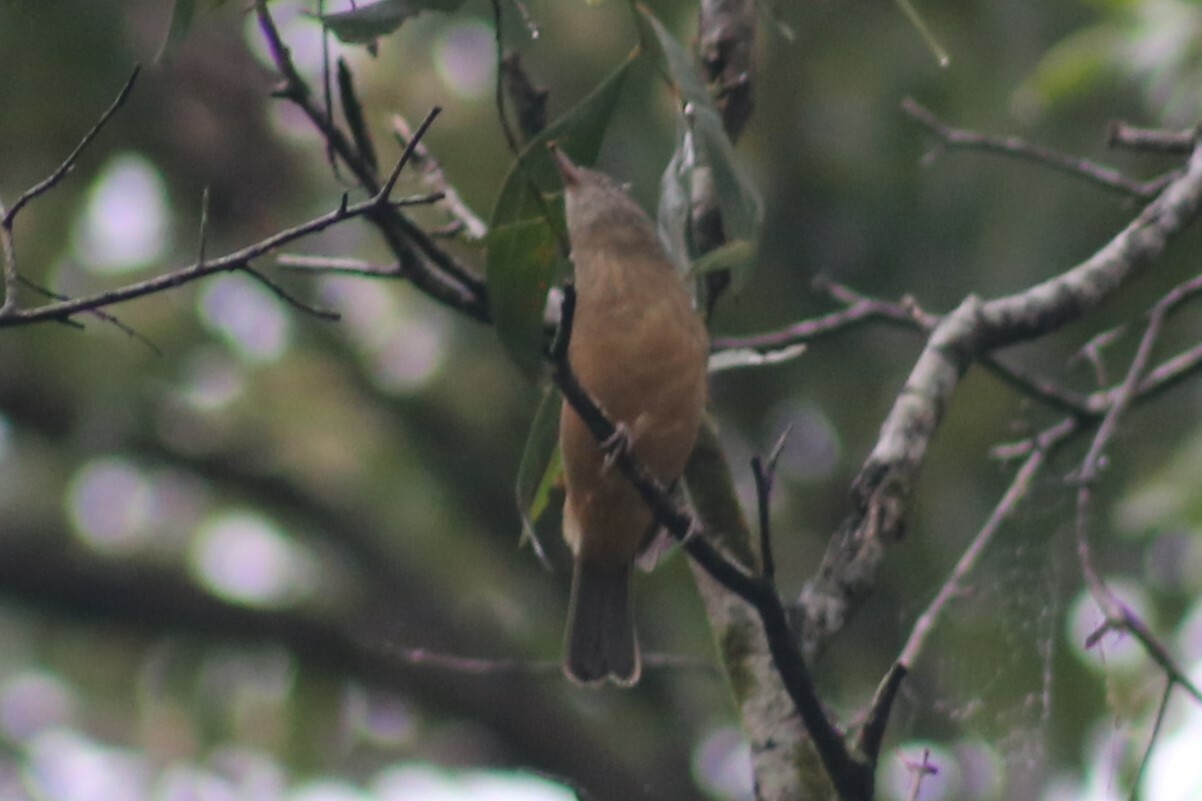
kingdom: Animalia
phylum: Chordata
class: Aves
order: Passeriformes
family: Pachycephalidae
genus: Colluricincla
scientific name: Colluricincla rufogaster
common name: Rufous shrikethrush
